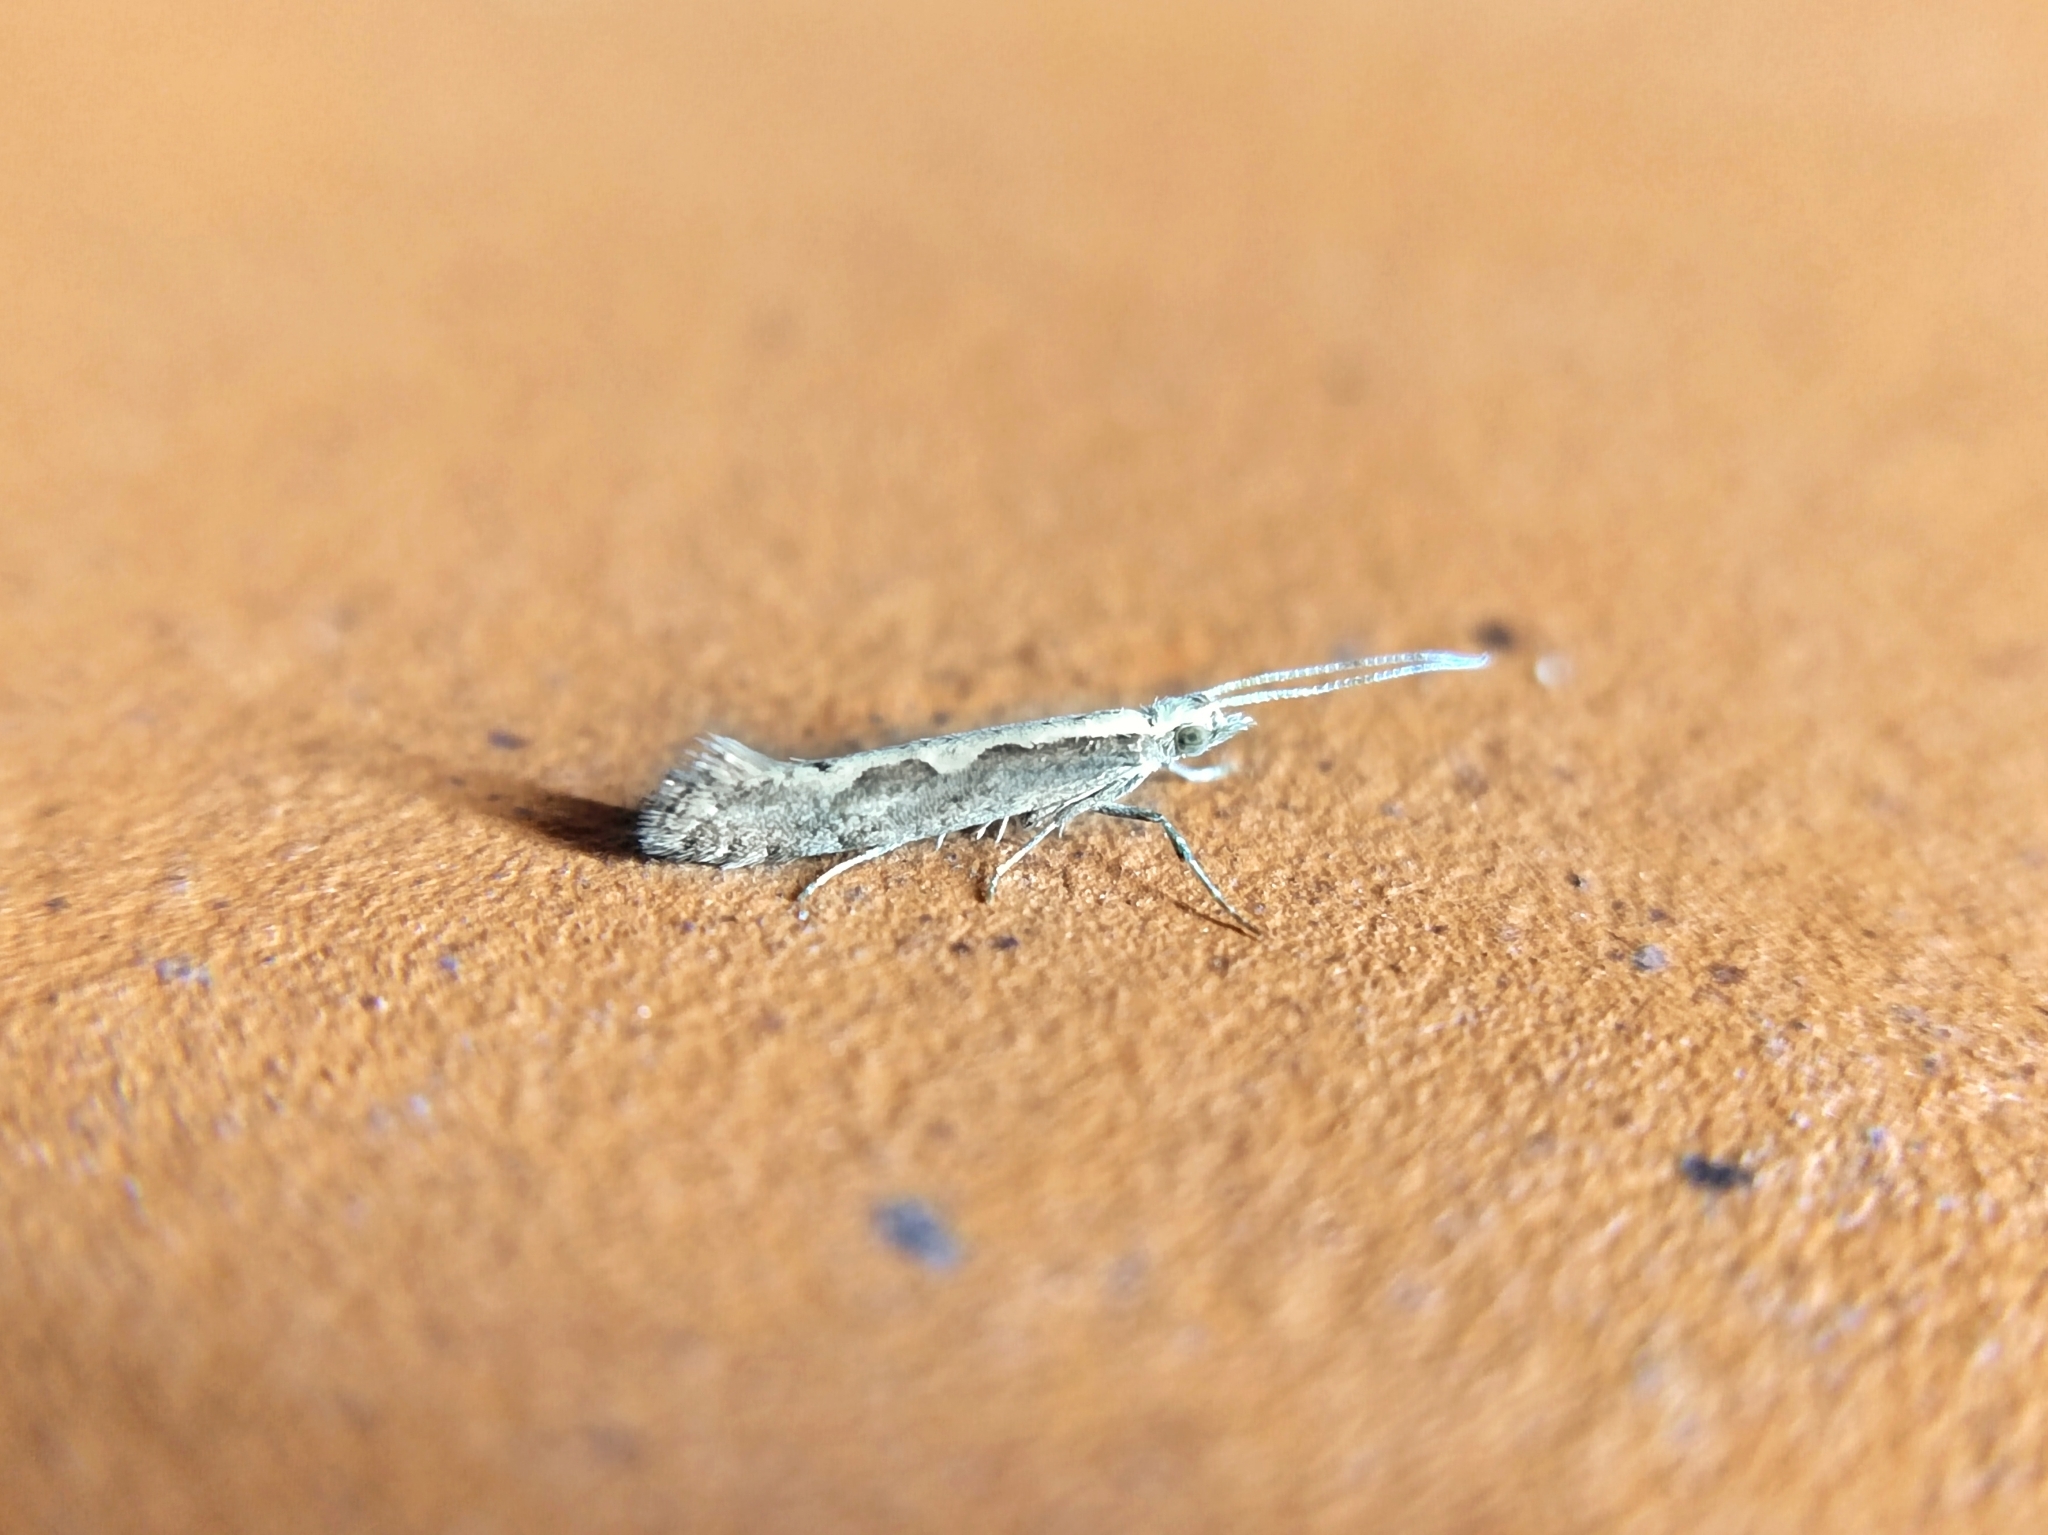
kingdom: Animalia
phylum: Arthropoda
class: Insecta
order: Lepidoptera
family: Plutellidae
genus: Plutella
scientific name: Plutella xylostella
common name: Diamond-back moth
